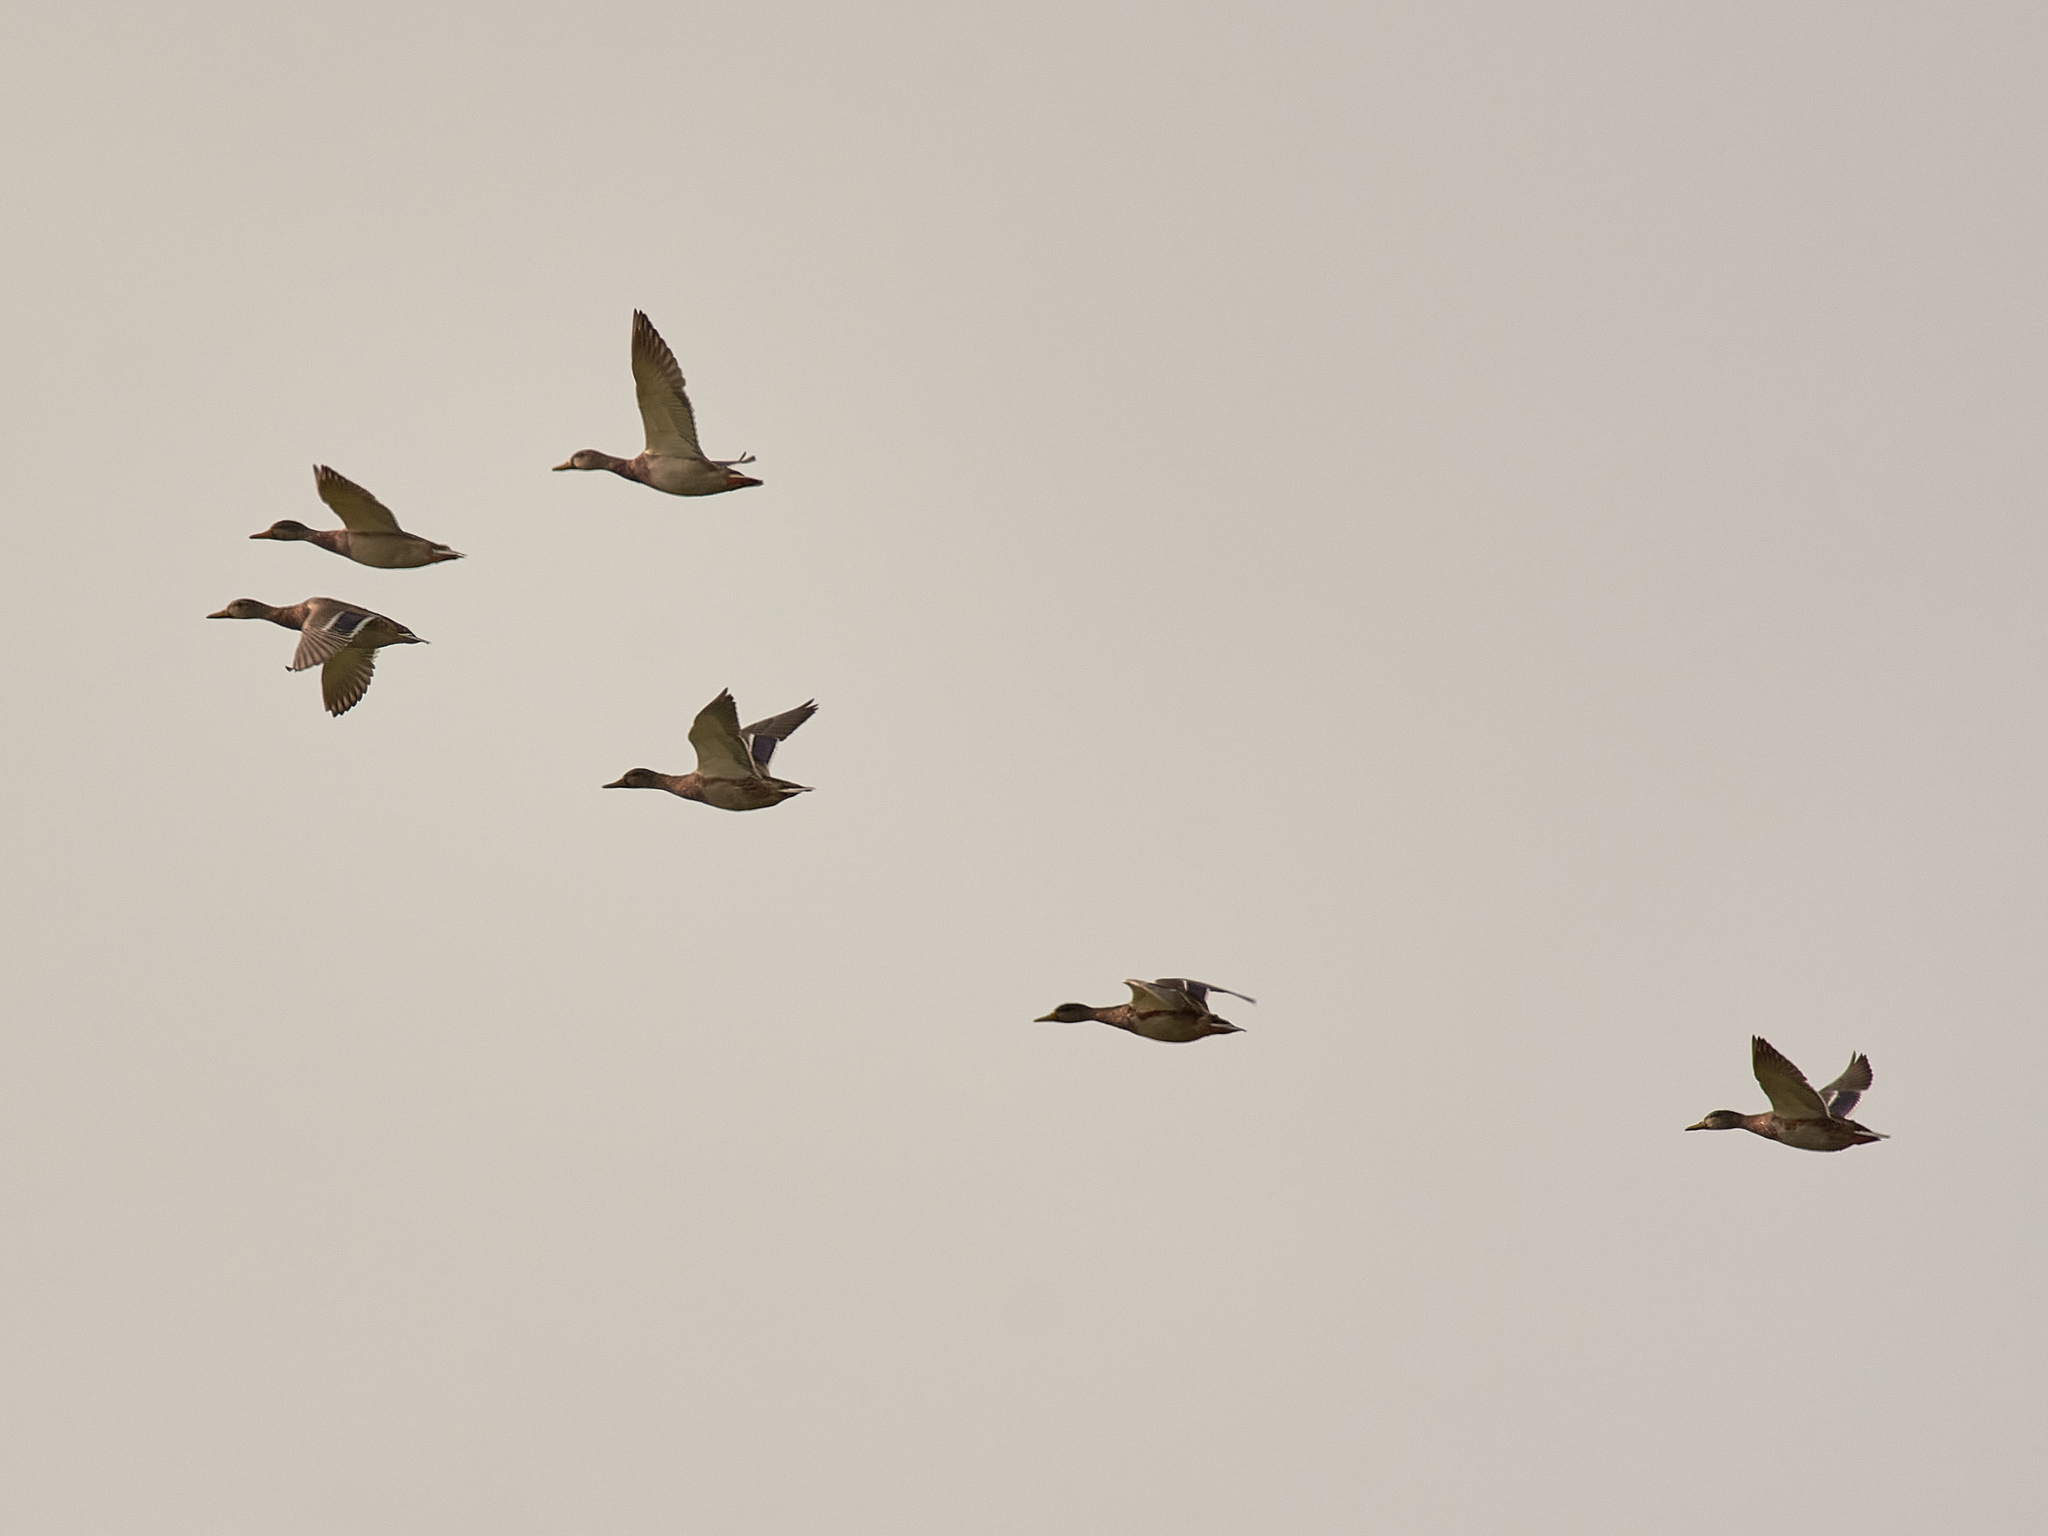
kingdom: Animalia
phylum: Chordata
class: Aves
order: Anseriformes
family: Anatidae
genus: Anas
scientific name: Anas platyrhynchos
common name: Mallard
